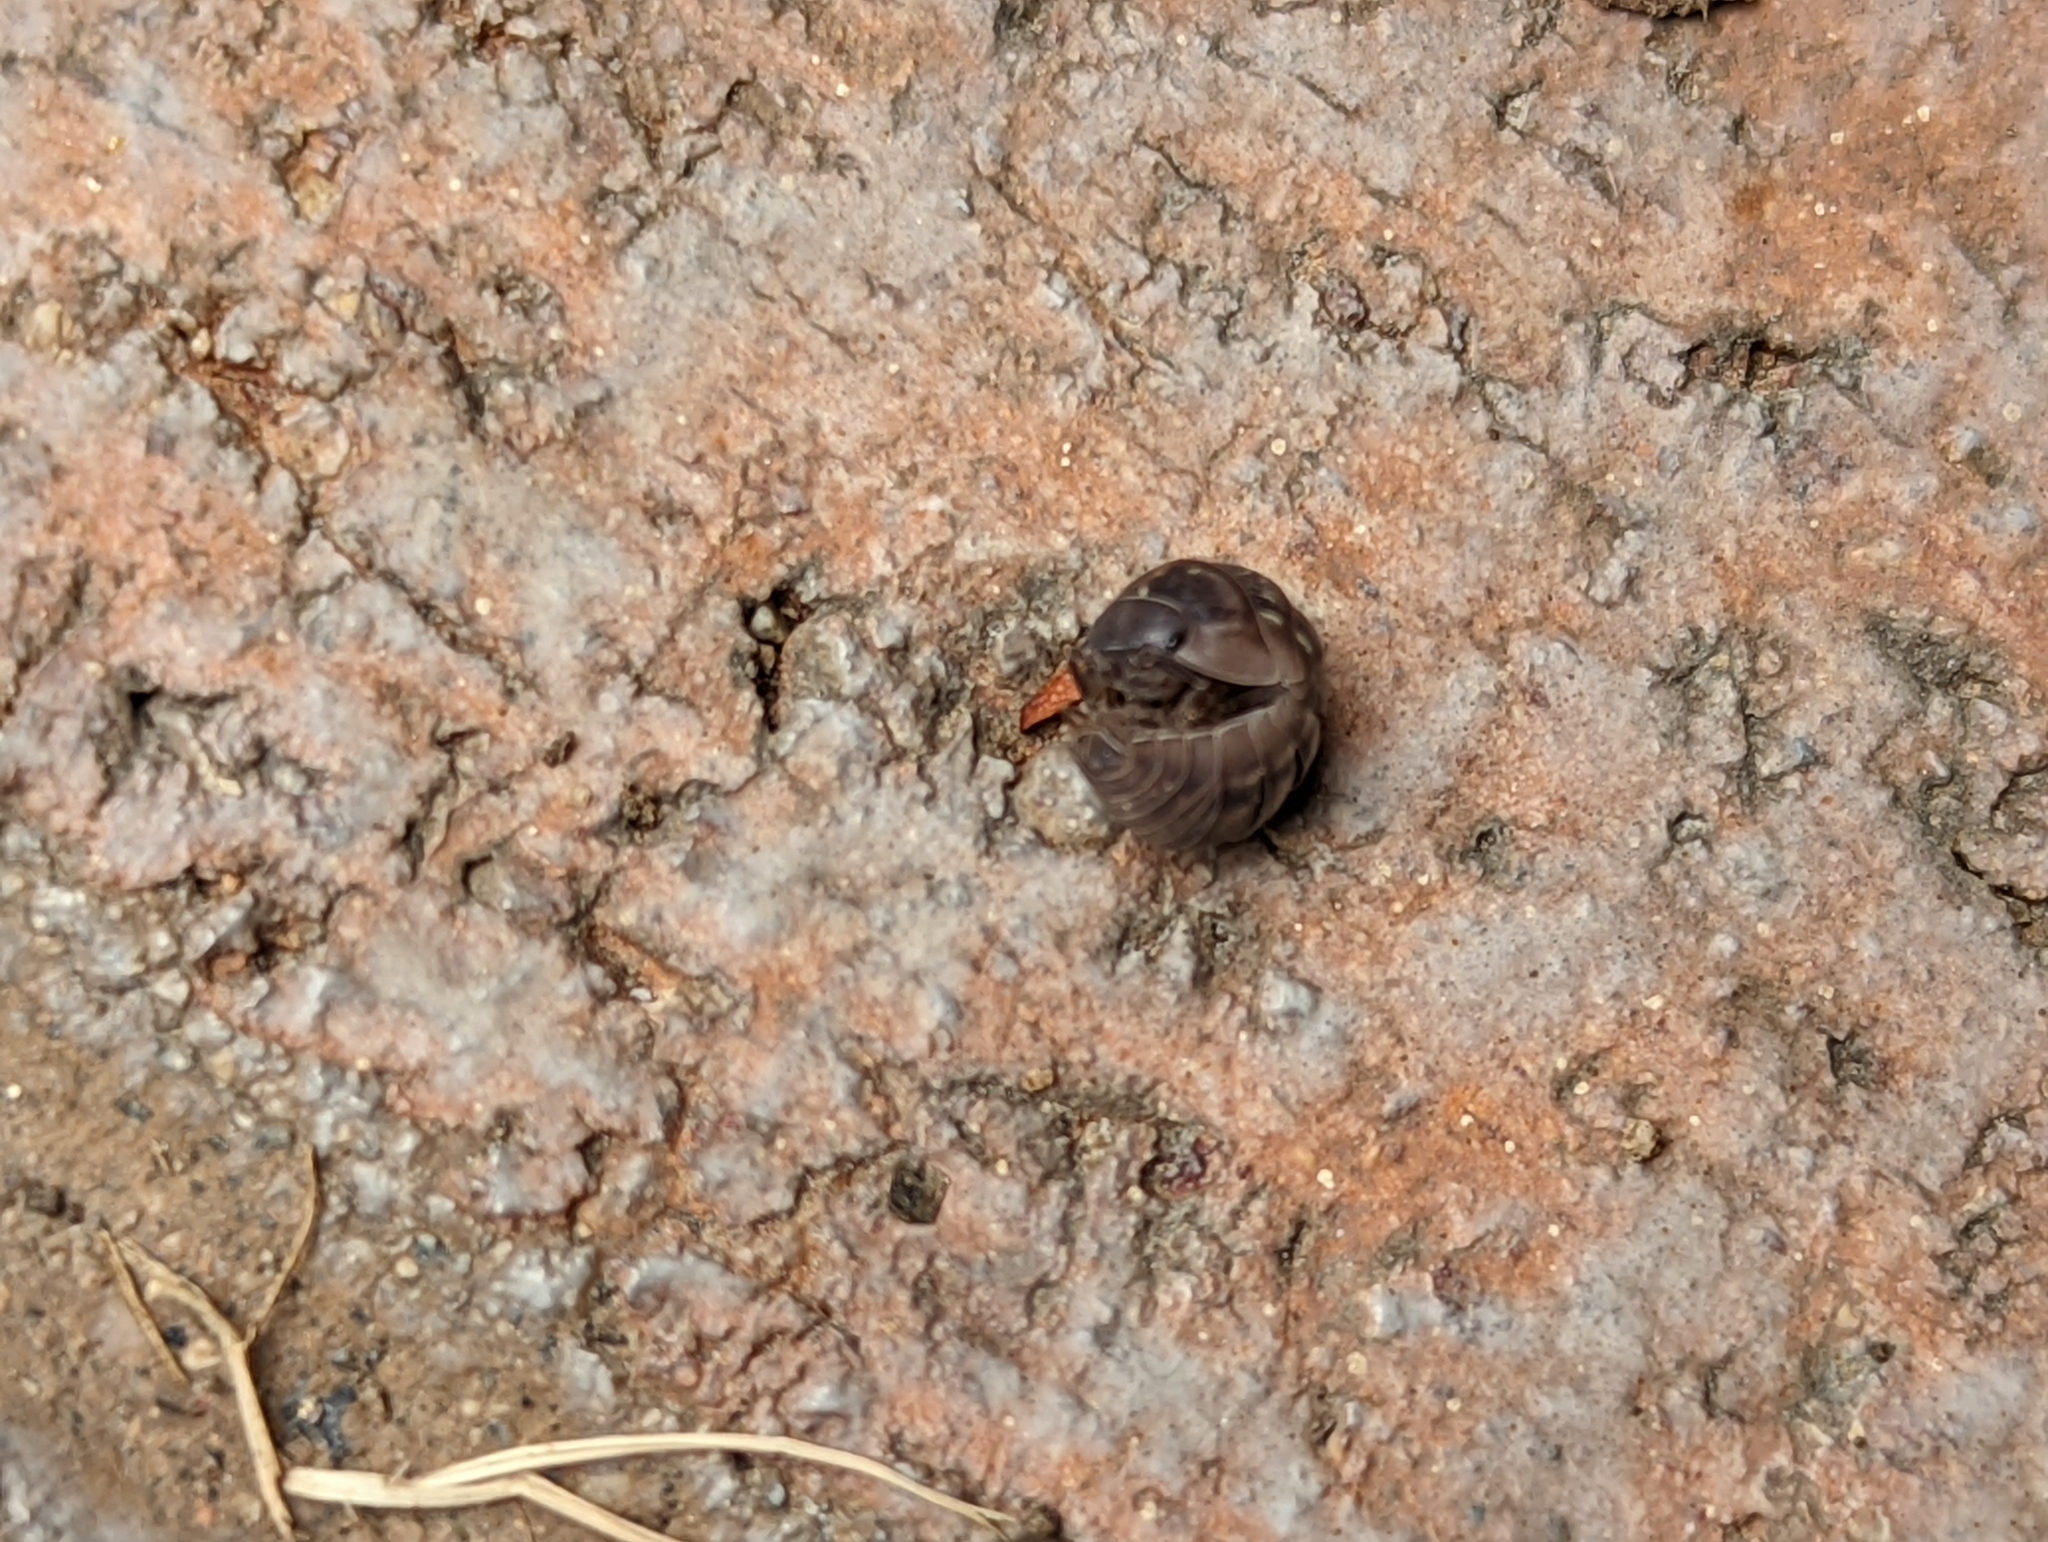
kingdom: Animalia
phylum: Arthropoda
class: Malacostraca
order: Isopoda
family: Armadillidiidae
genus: Armadillidium
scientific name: Armadillidium vulgare
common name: Common pill woodlouse
